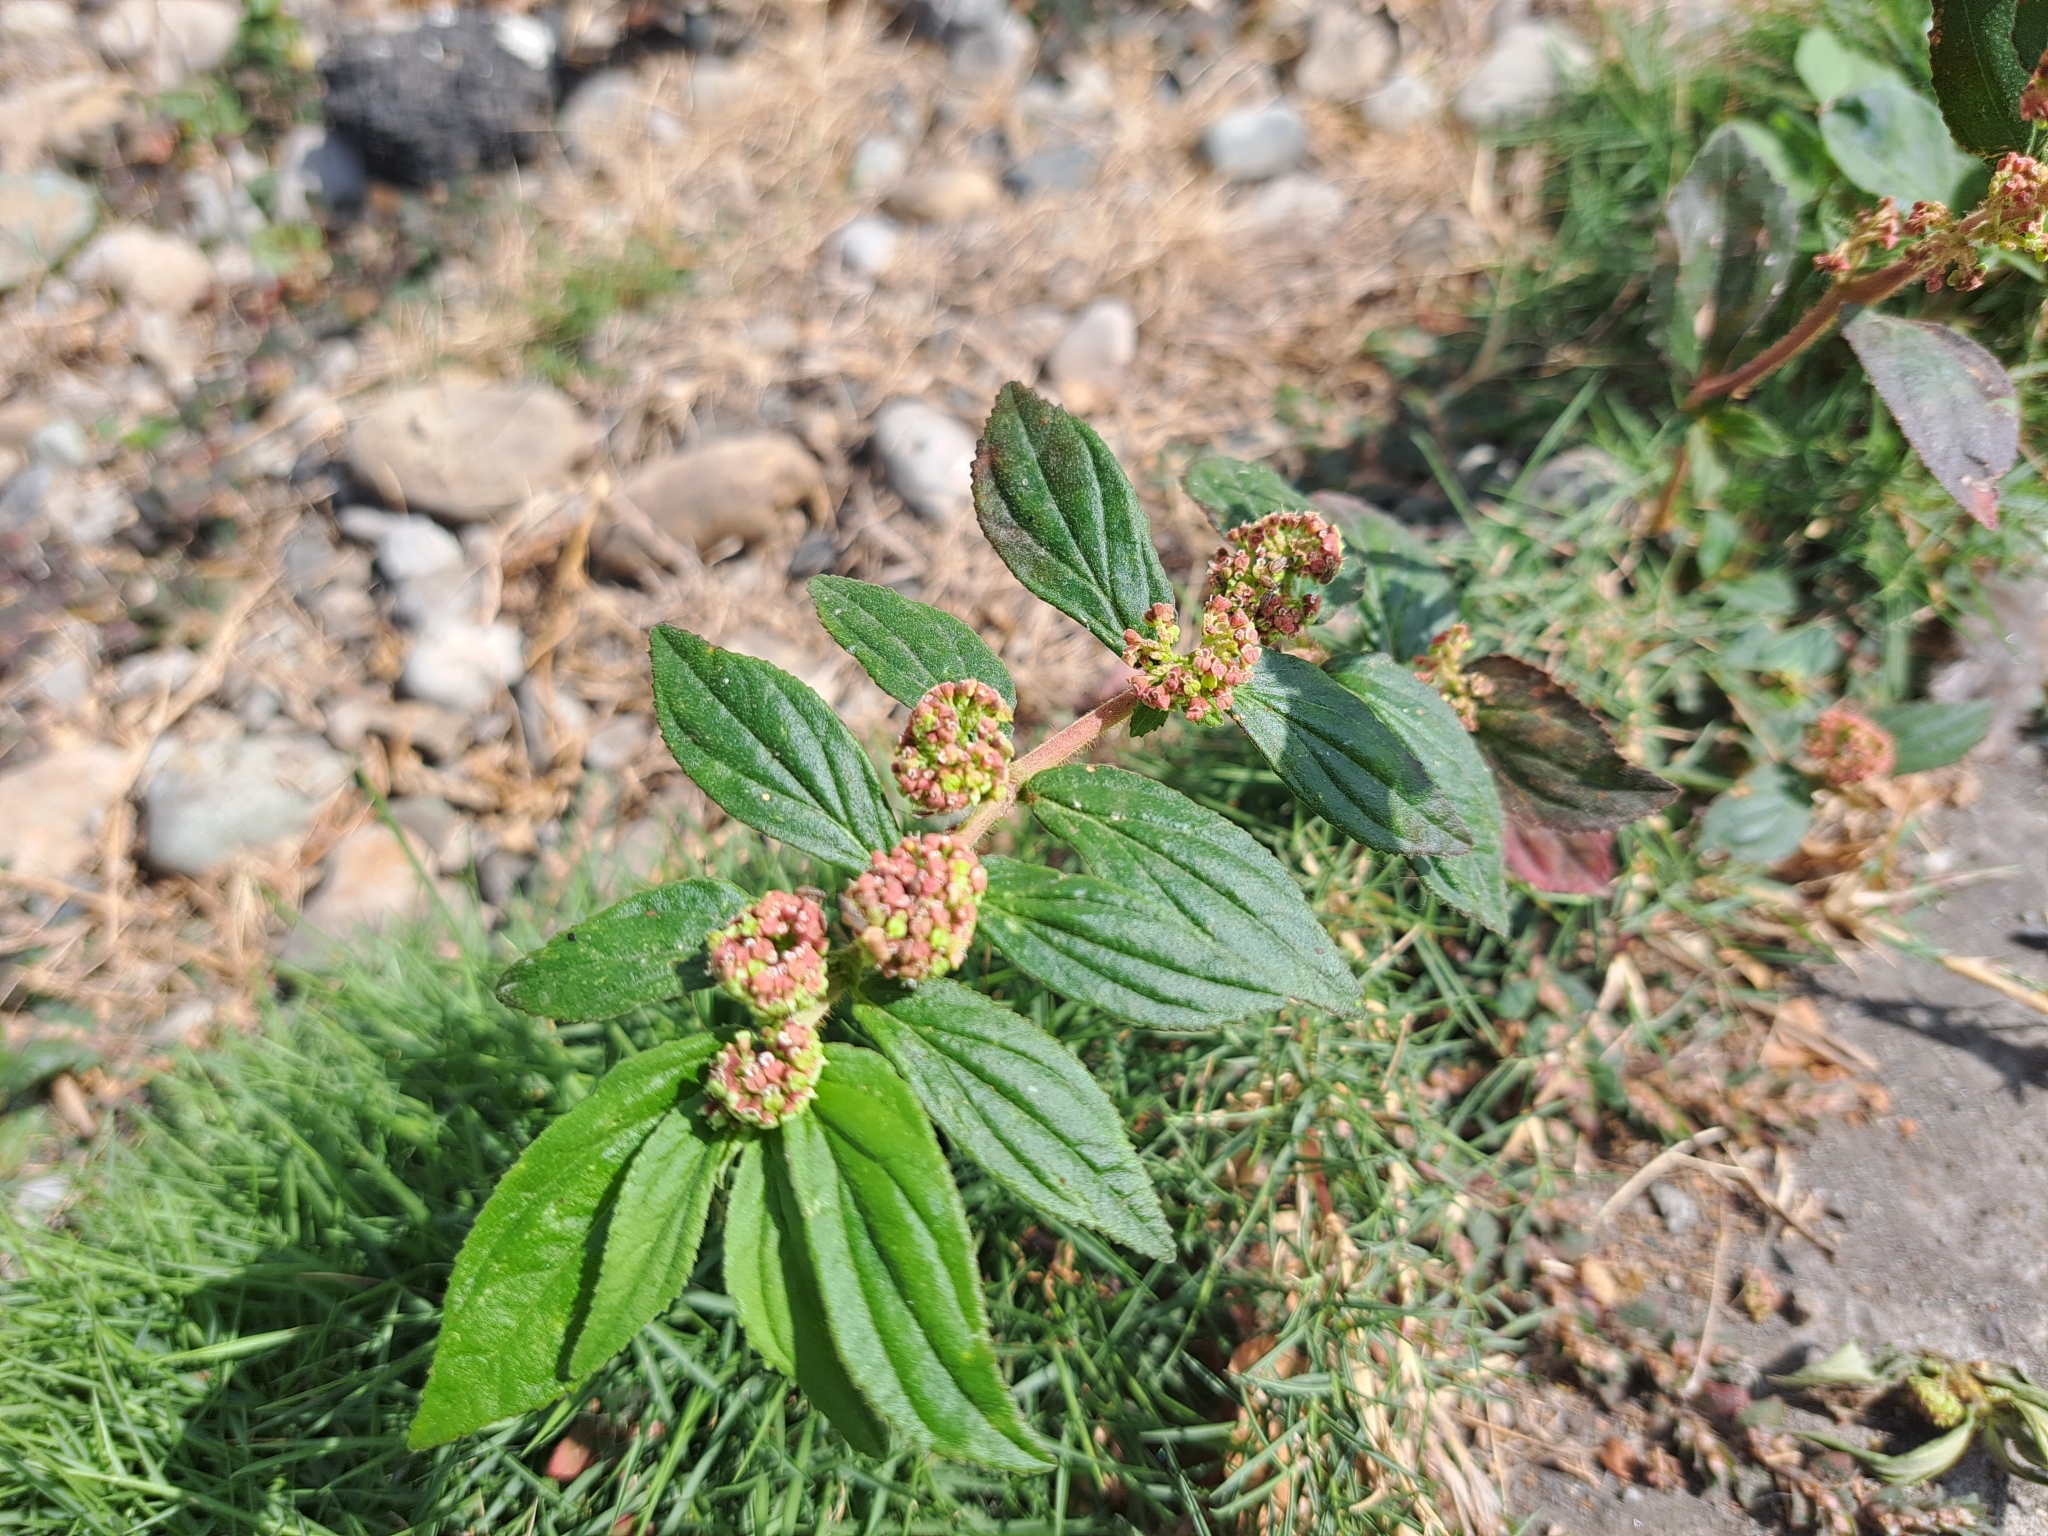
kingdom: Plantae
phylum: Tracheophyta
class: Magnoliopsida
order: Malpighiales
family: Euphorbiaceae
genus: Euphorbia
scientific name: Euphorbia hirta
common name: Pillpod sandmat
